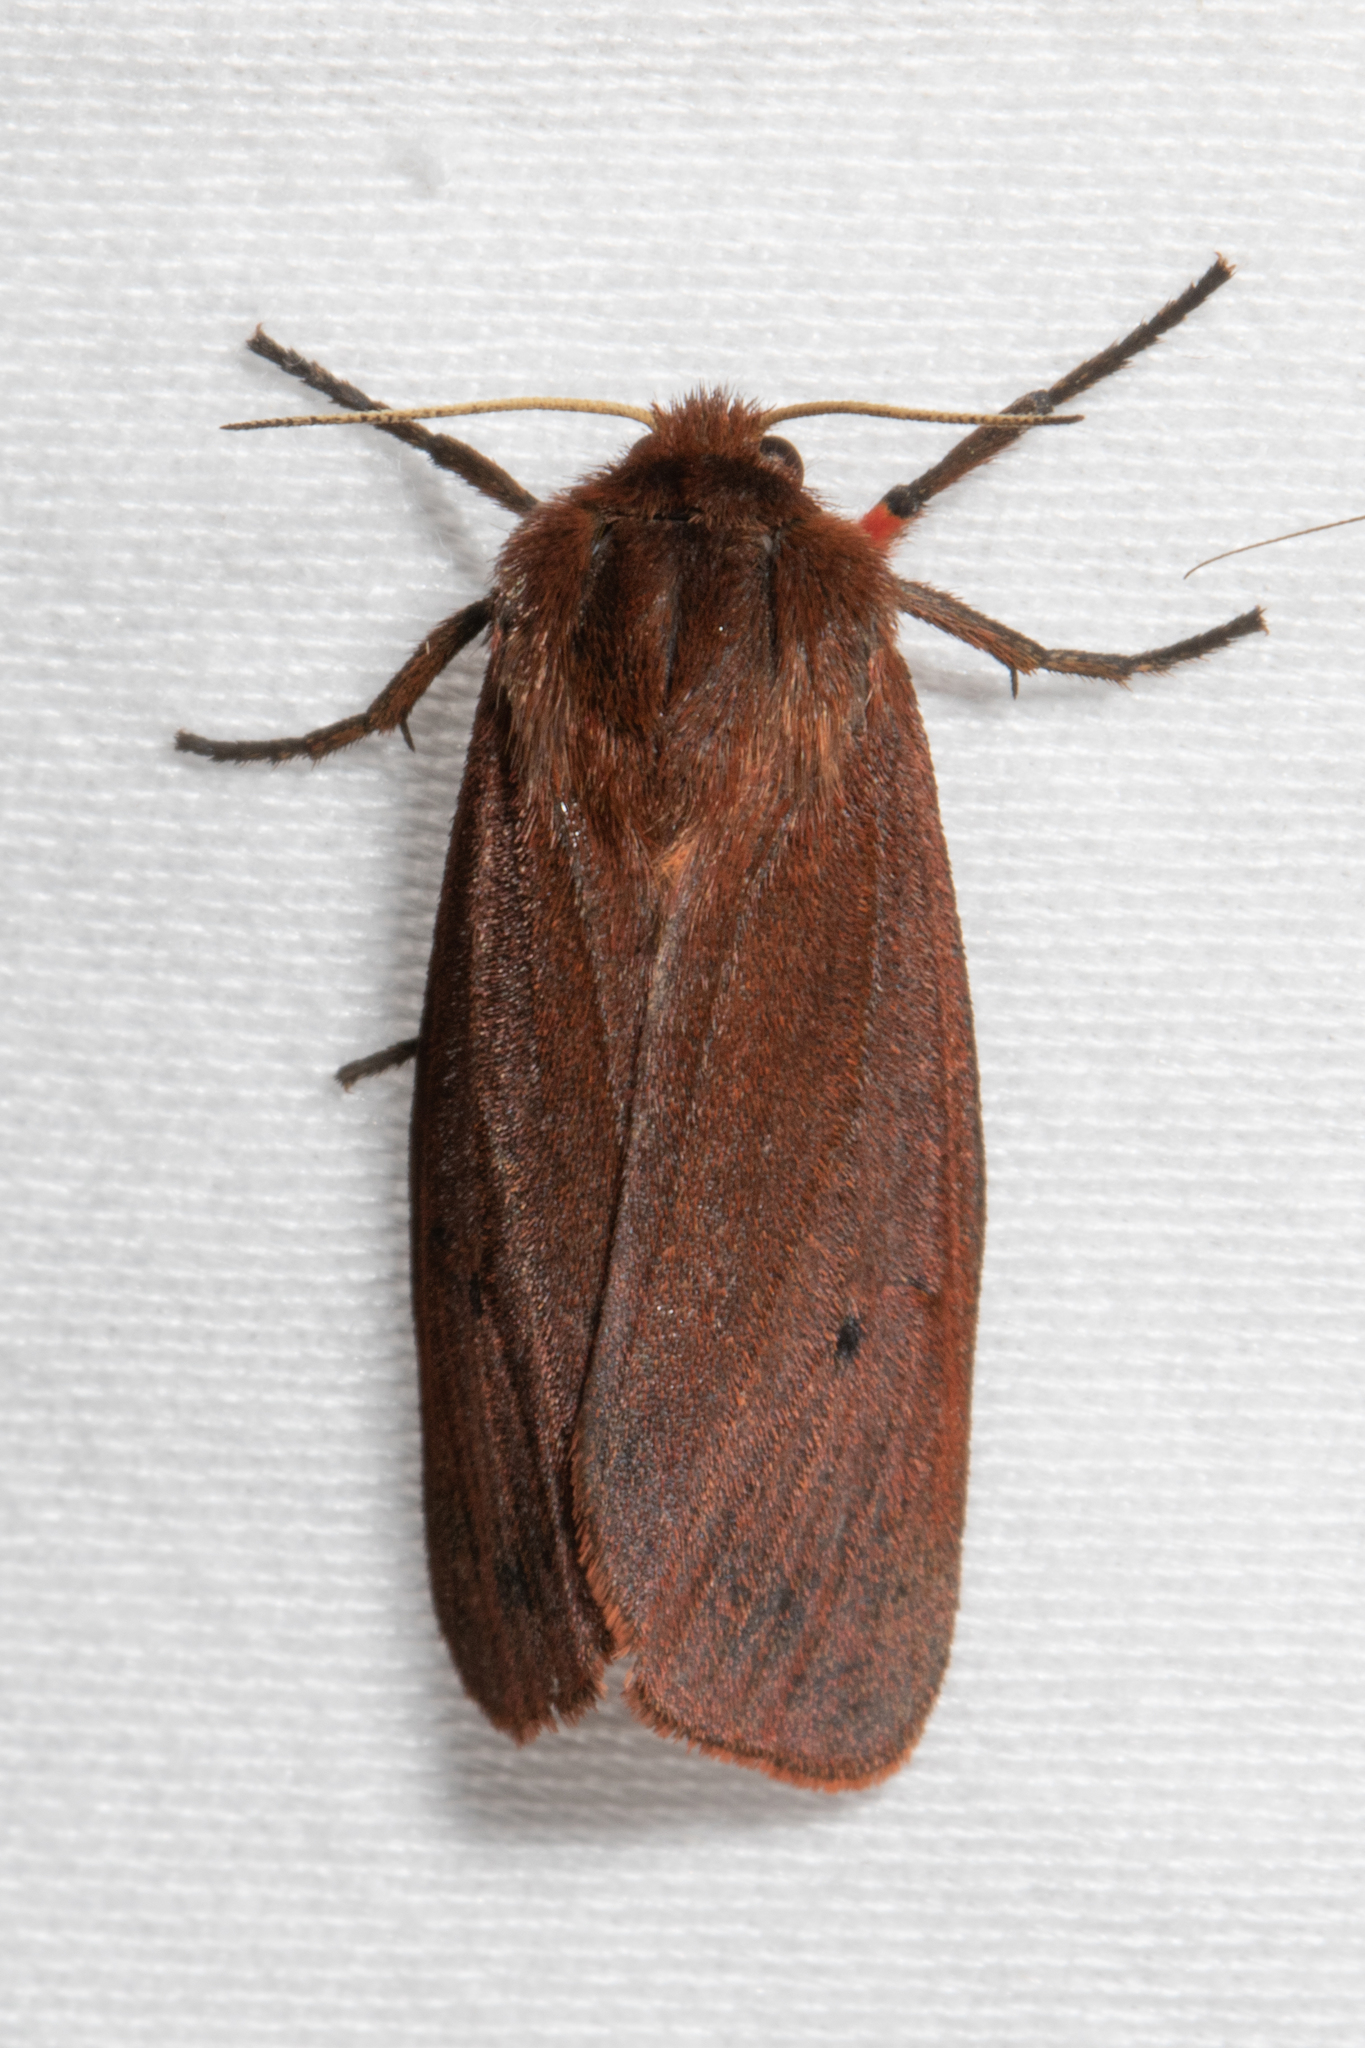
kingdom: Animalia
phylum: Arthropoda
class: Insecta
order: Lepidoptera
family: Erebidae
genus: Phragmatobia
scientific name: Phragmatobia fuliginosa
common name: Ruby tiger
